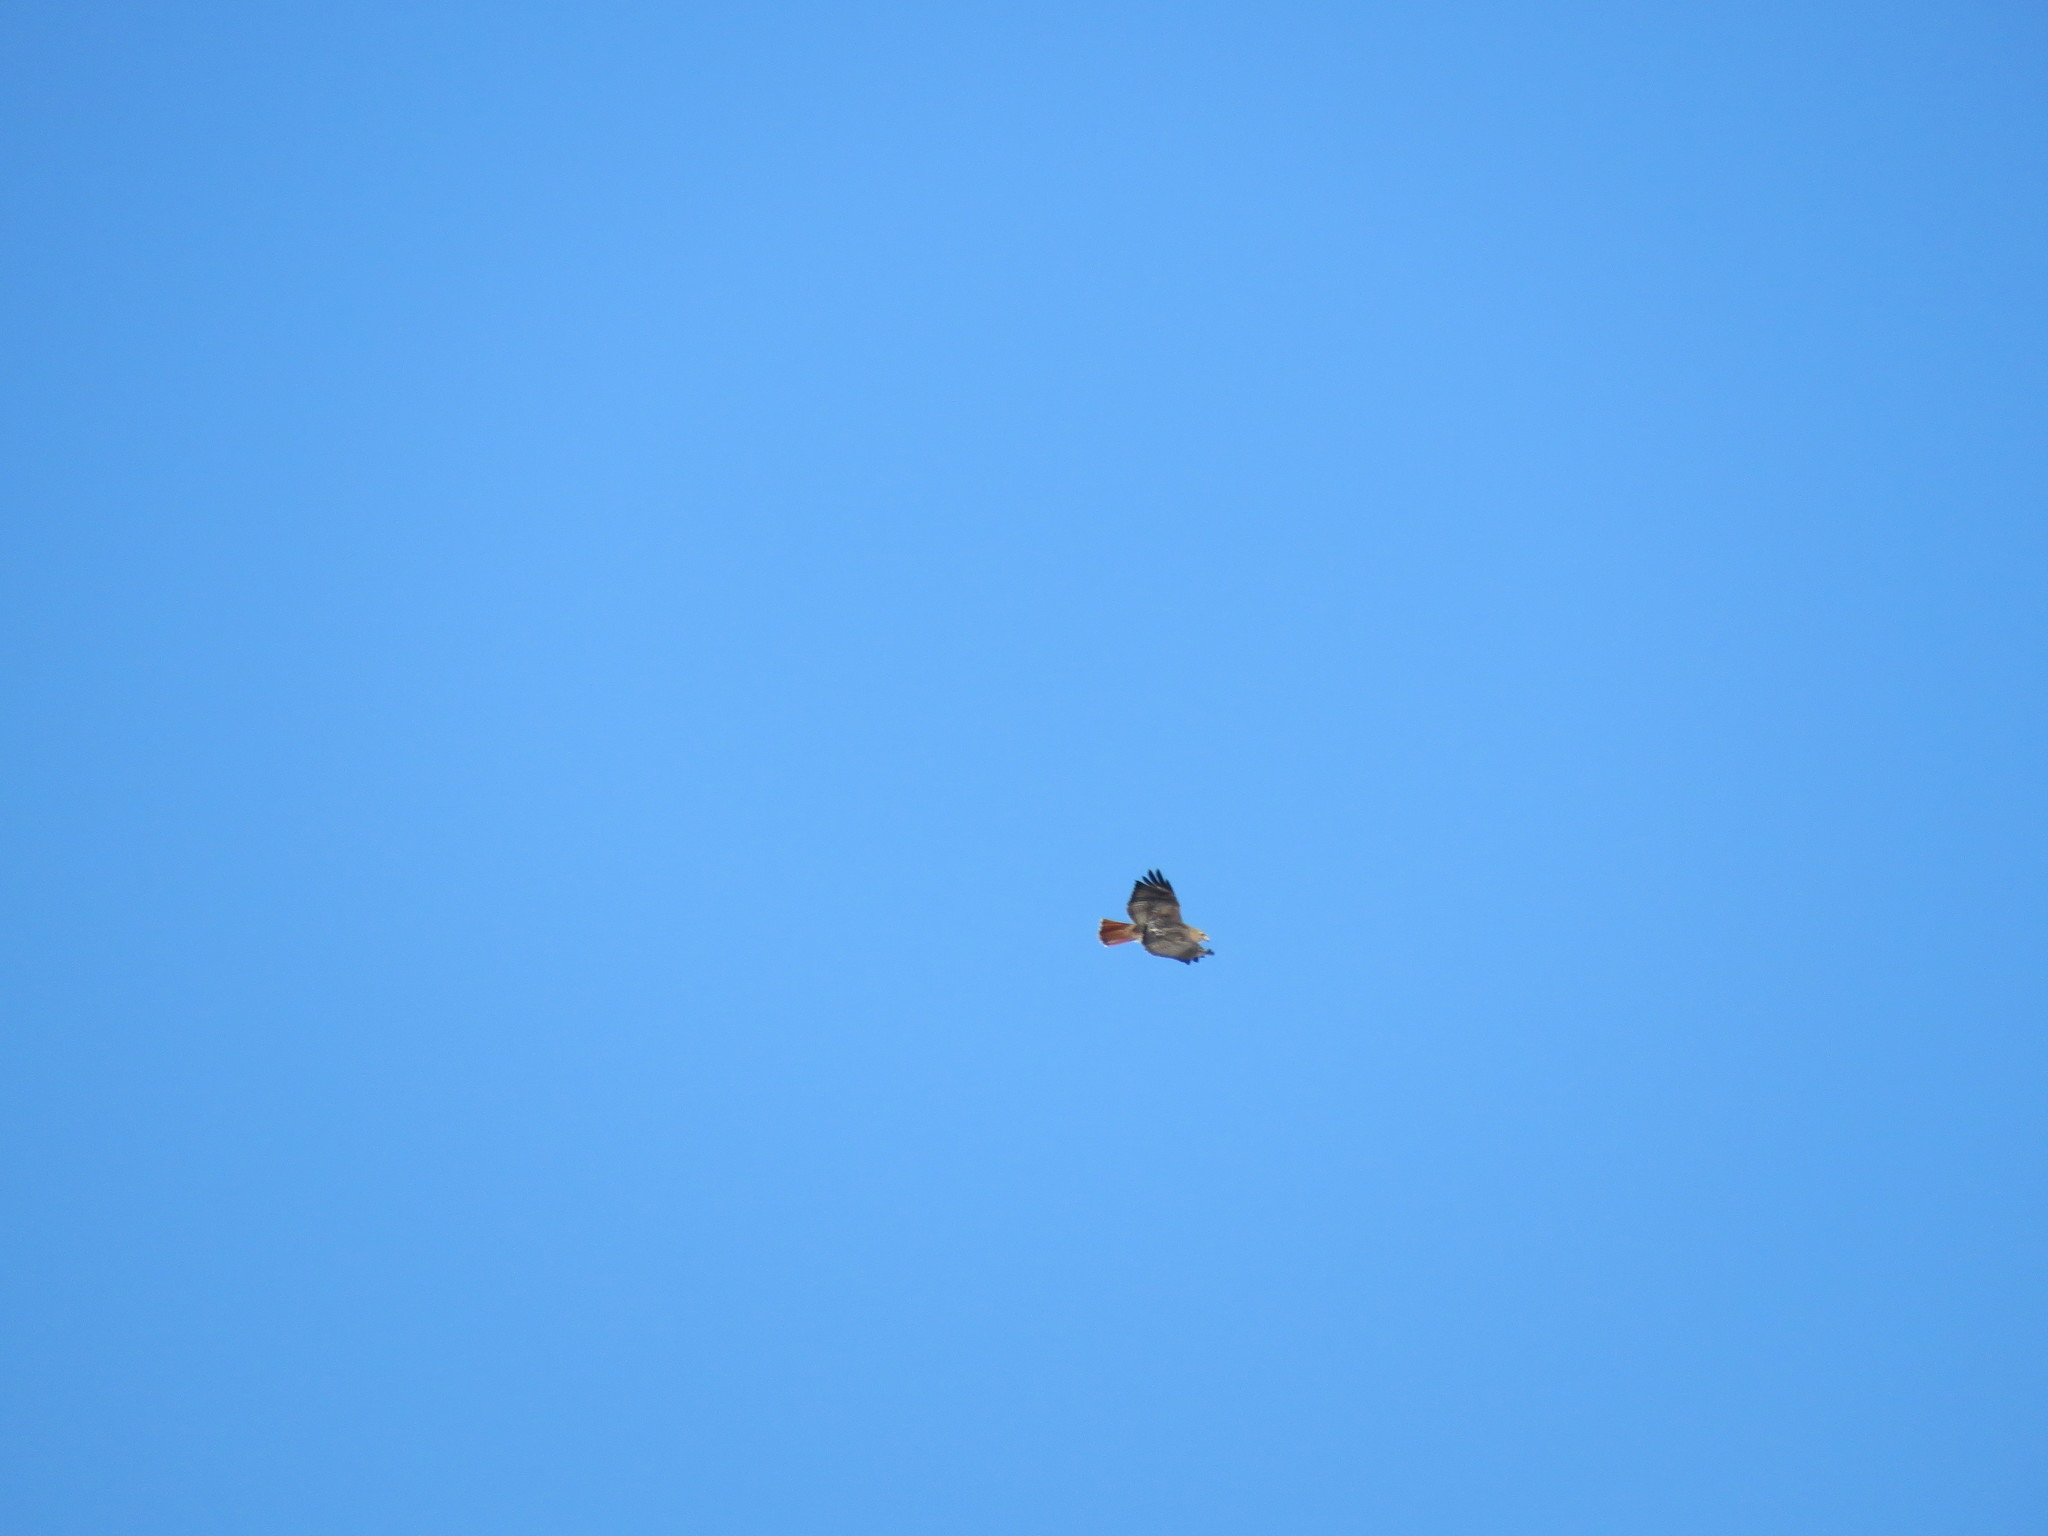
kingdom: Animalia
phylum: Chordata
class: Aves
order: Accipitriformes
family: Accipitridae
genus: Buteo
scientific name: Buteo jamaicensis
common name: Red-tailed hawk
